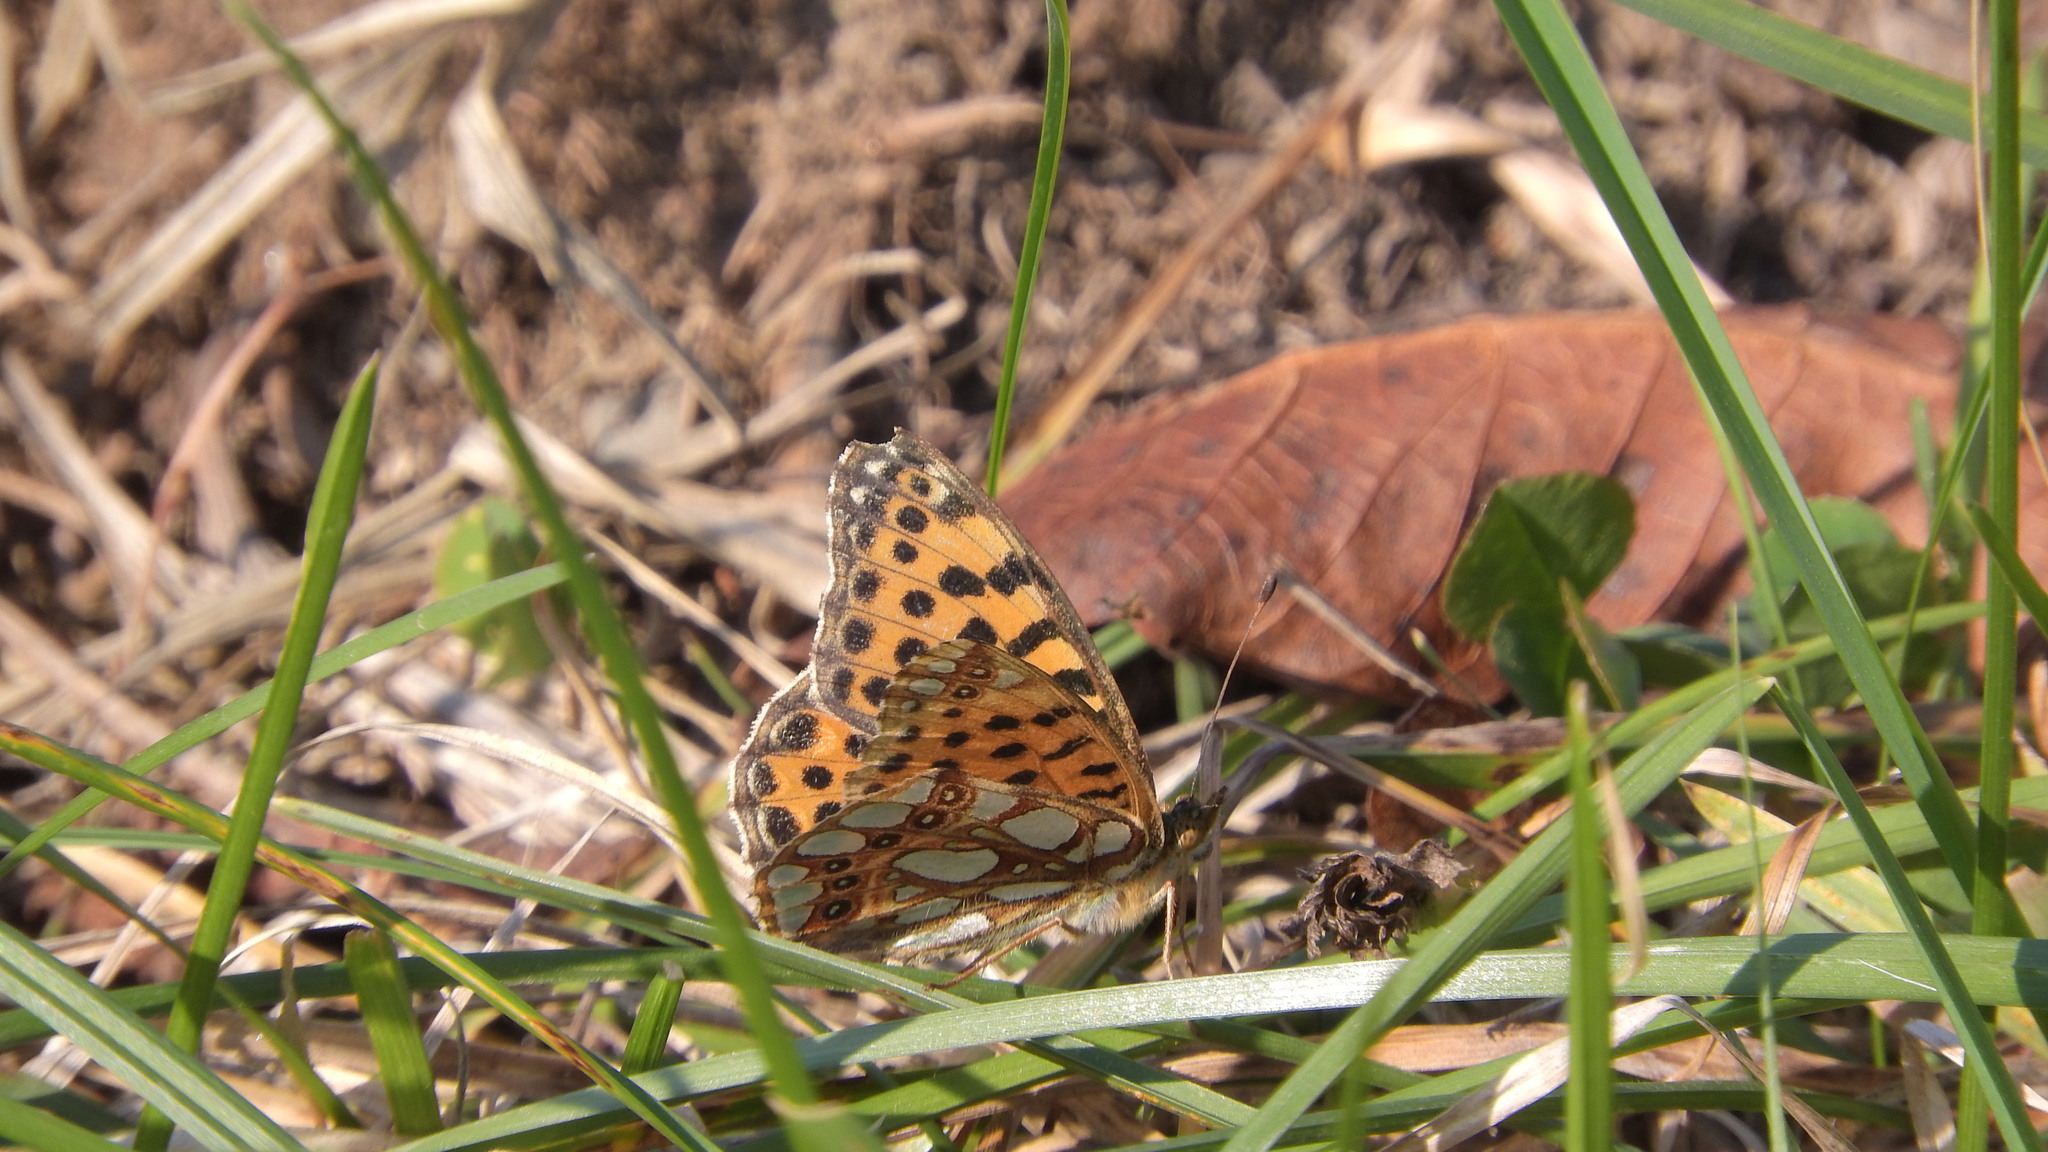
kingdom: Animalia
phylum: Arthropoda
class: Insecta
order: Lepidoptera
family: Nymphalidae
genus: Issoria
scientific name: Issoria lathonia
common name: Queen of spain fritillary
